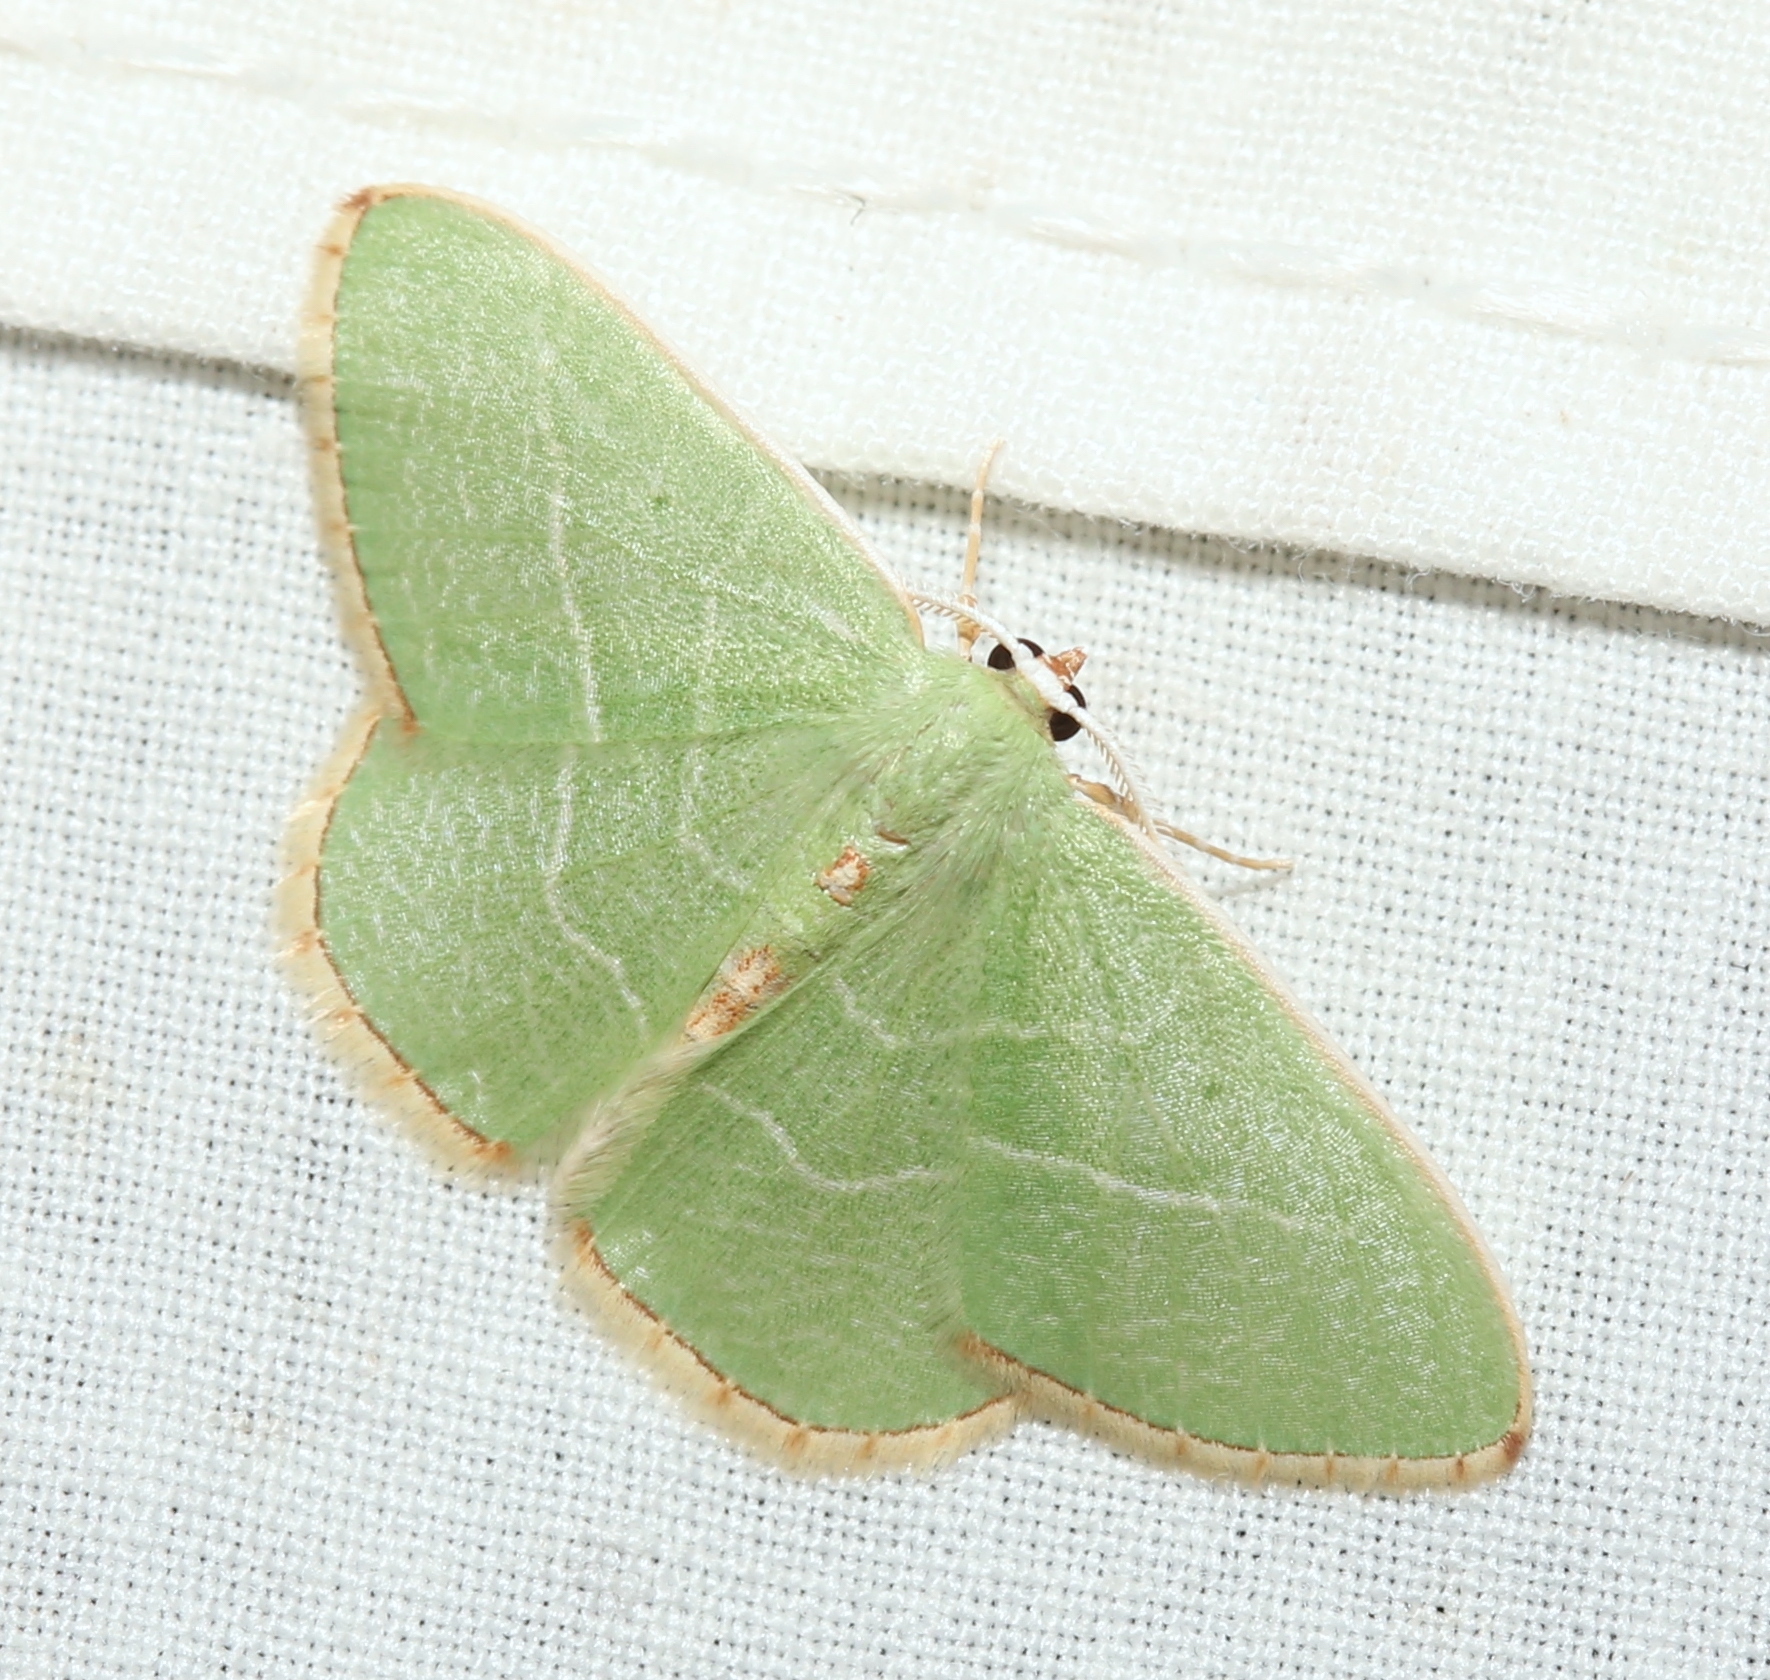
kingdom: Animalia
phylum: Arthropoda
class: Insecta
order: Lepidoptera
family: Geometridae
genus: Nemoria
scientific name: Nemoria bistriaria
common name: Red-fringed emerald
